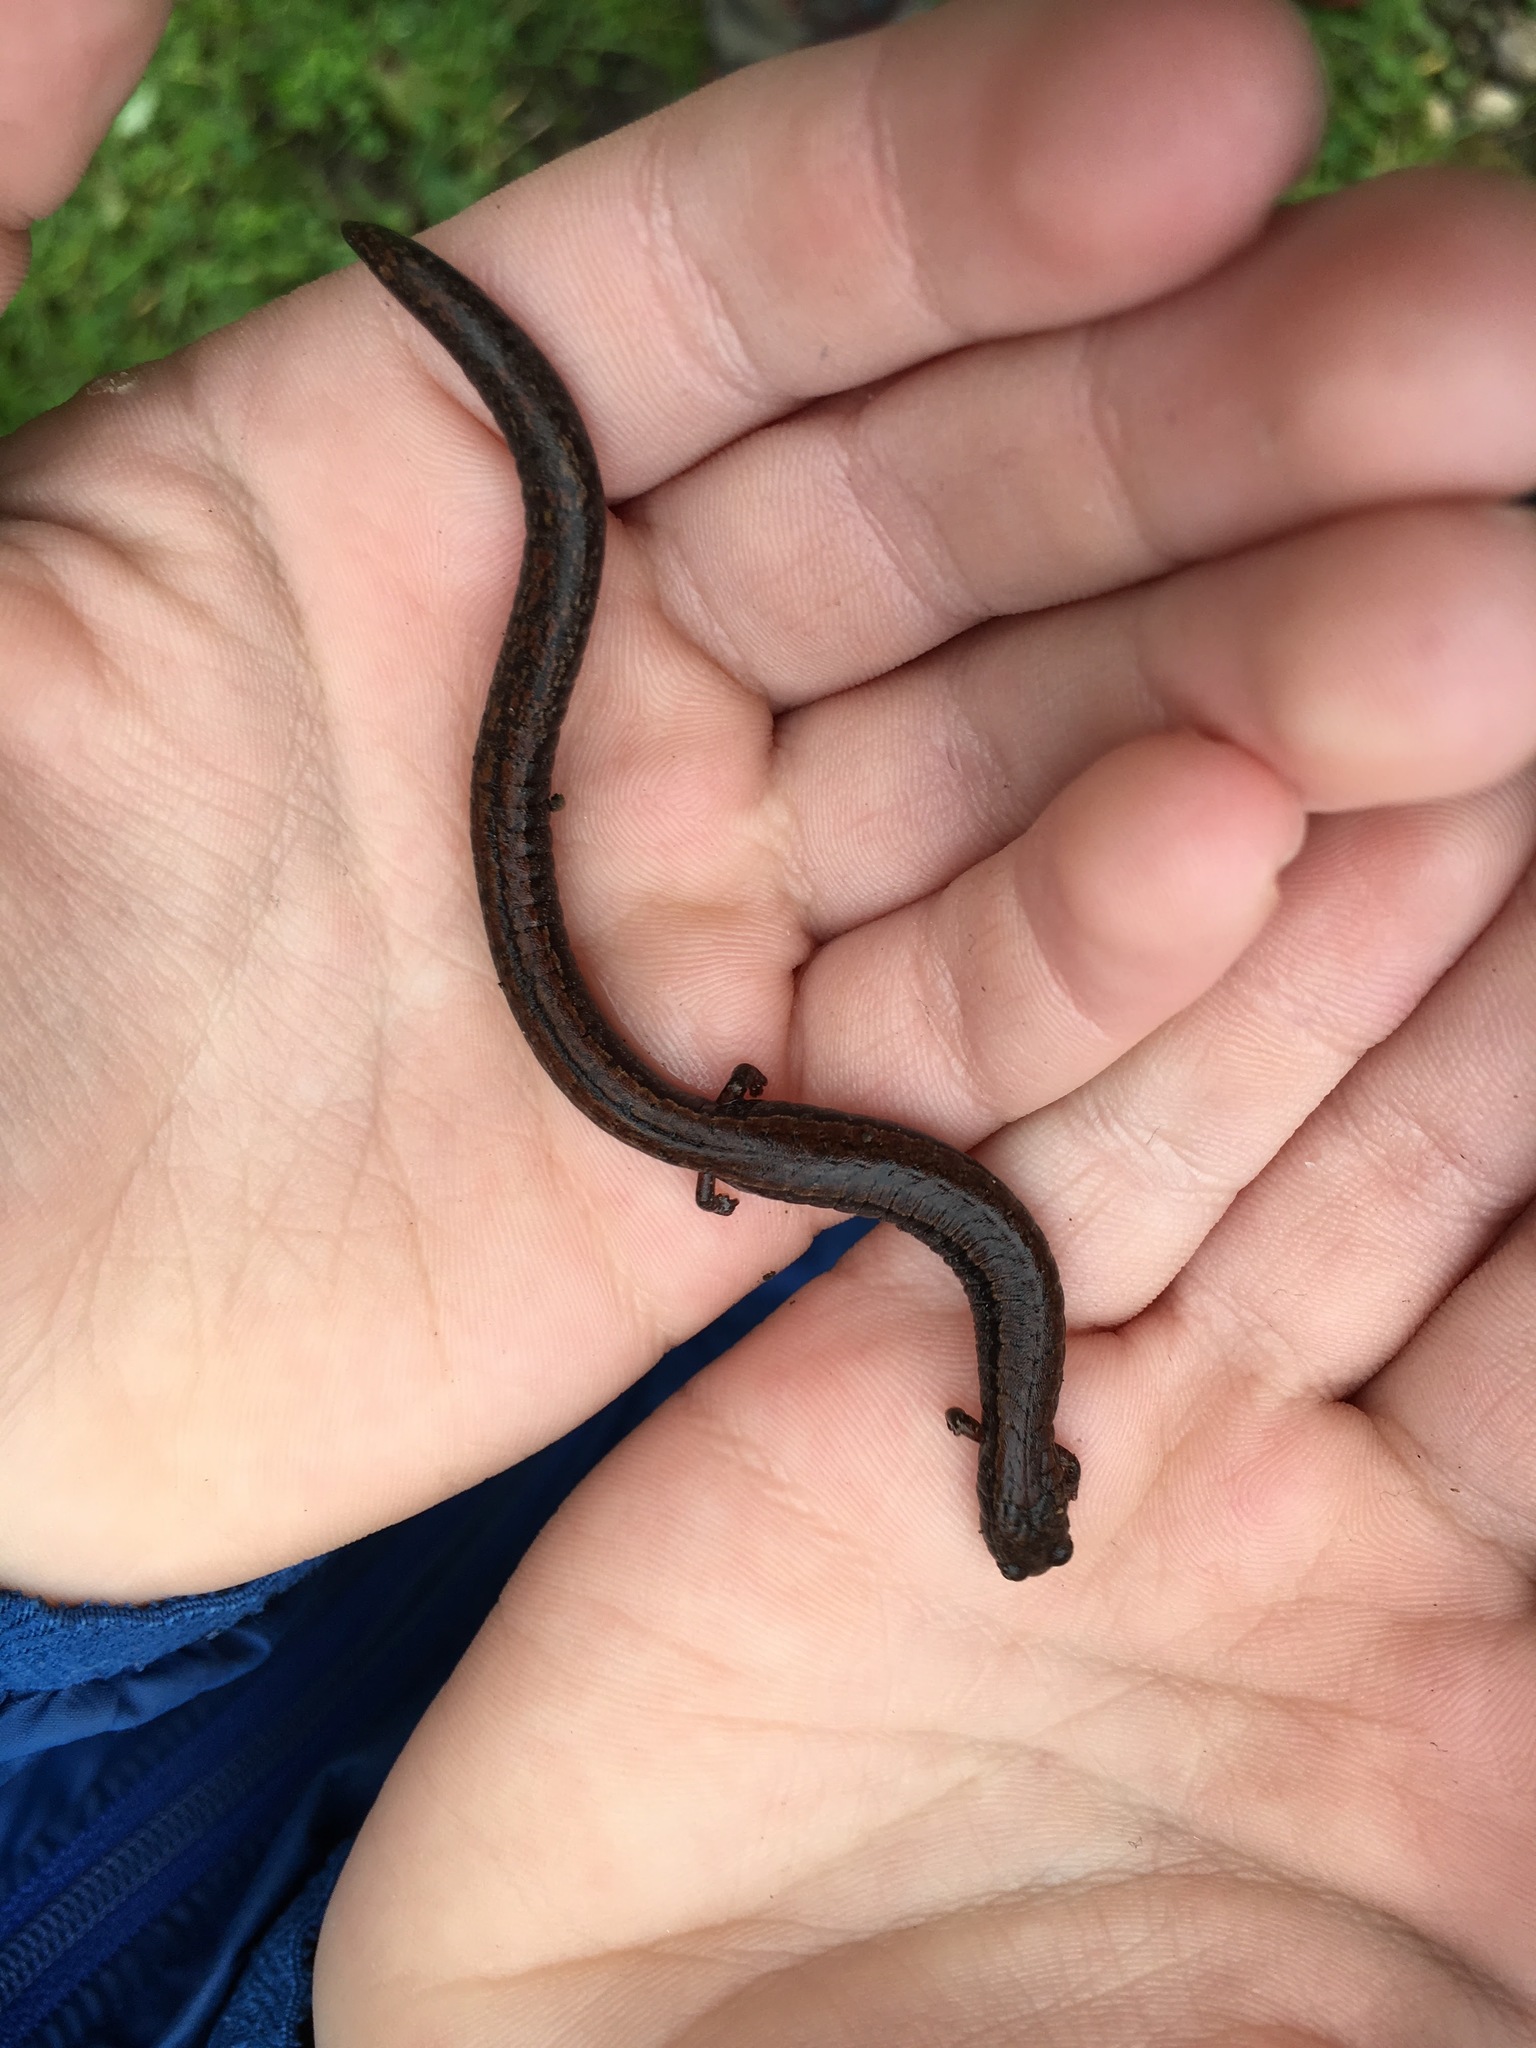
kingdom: Animalia
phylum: Chordata
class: Amphibia
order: Caudata
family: Plethodontidae
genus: Batrachoseps
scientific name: Batrachoseps attenuatus
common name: California slender salamander
